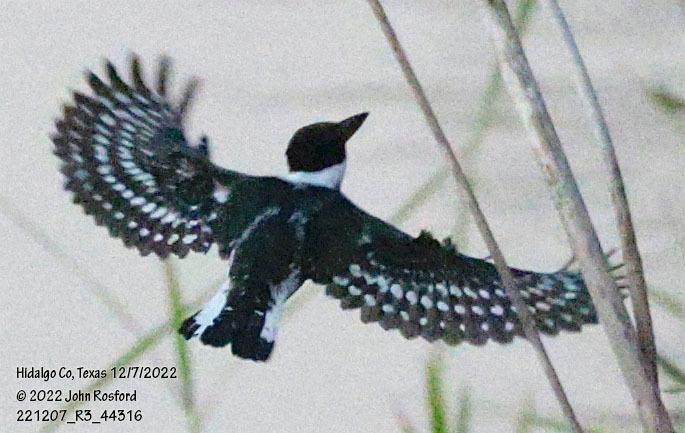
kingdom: Animalia
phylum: Chordata
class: Aves
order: Coraciiformes
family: Alcedinidae
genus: Chloroceryle
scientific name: Chloroceryle americana
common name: Green kingfisher
